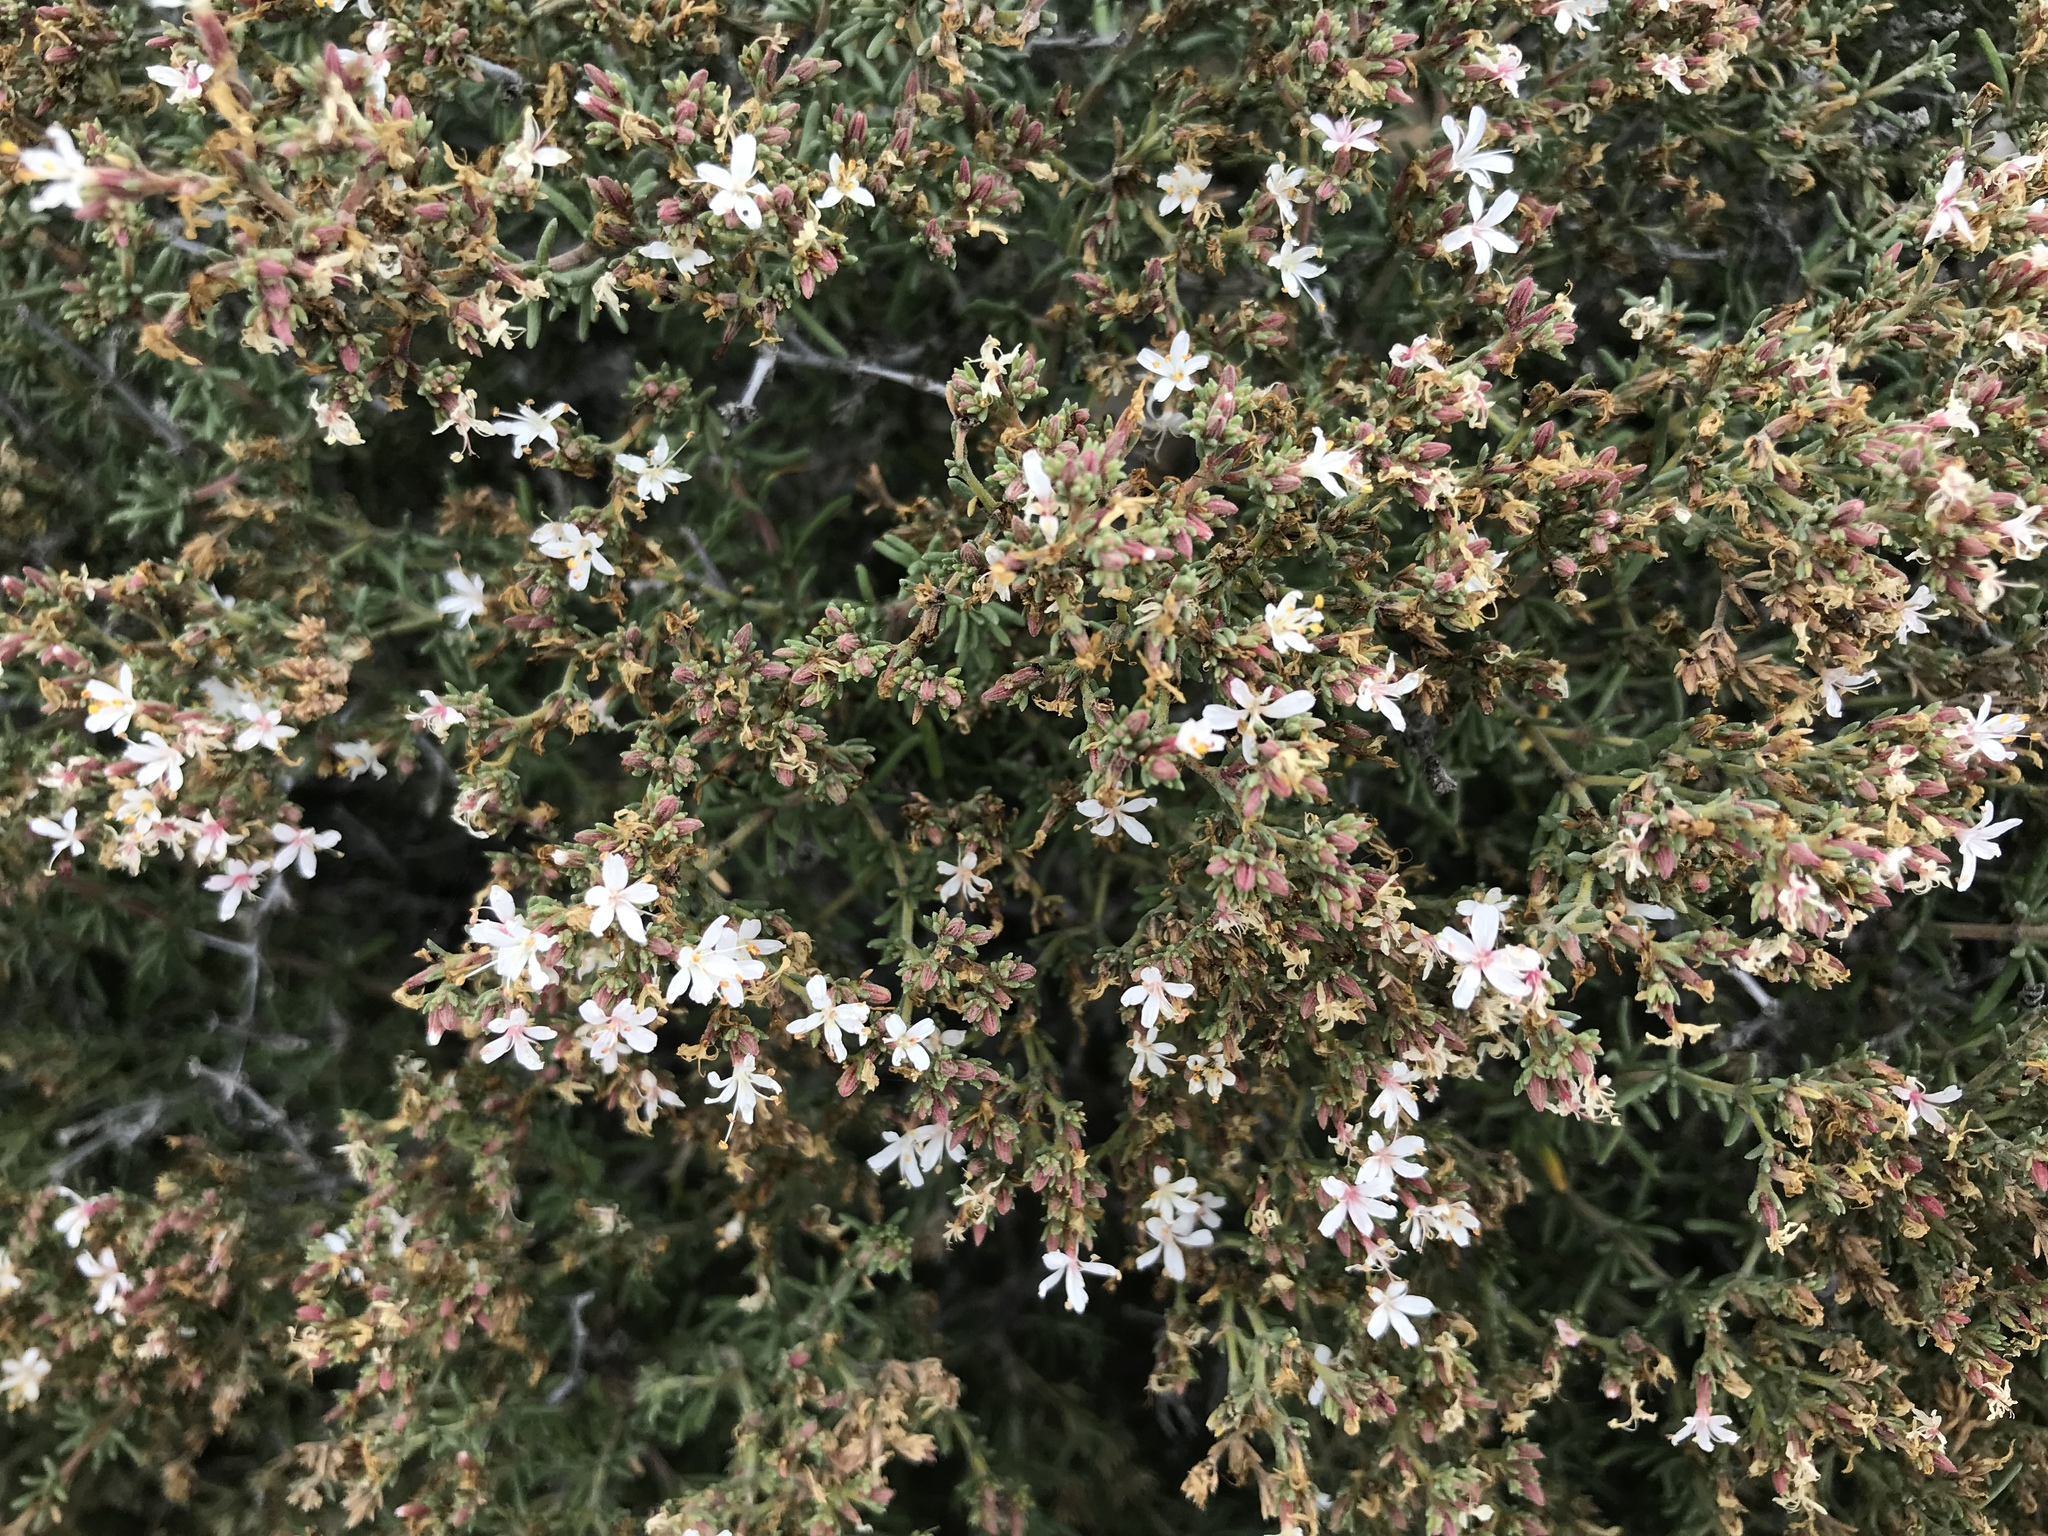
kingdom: Plantae
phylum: Tracheophyta
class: Magnoliopsida
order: Caryophyllales
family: Frankeniaceae
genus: Frankenia
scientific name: Frankenia palmeri
